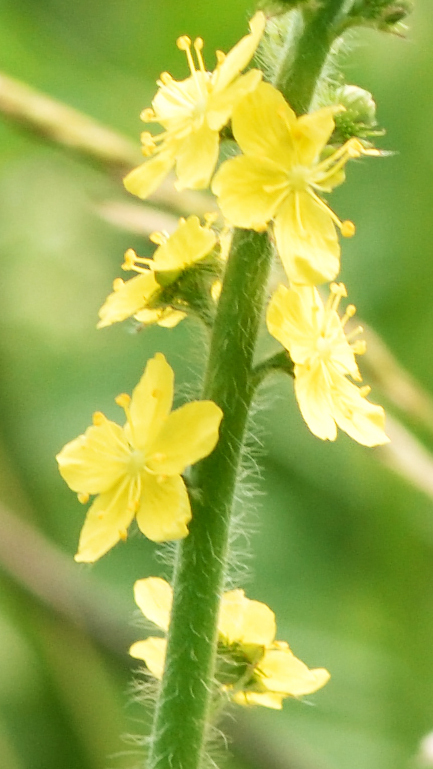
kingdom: Plantae
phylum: Tracheophyta
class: Magnoliopsida
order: Rosales
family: Rosaceae
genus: Agrimonia
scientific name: Agrimonia eupatoria
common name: Agrimony
